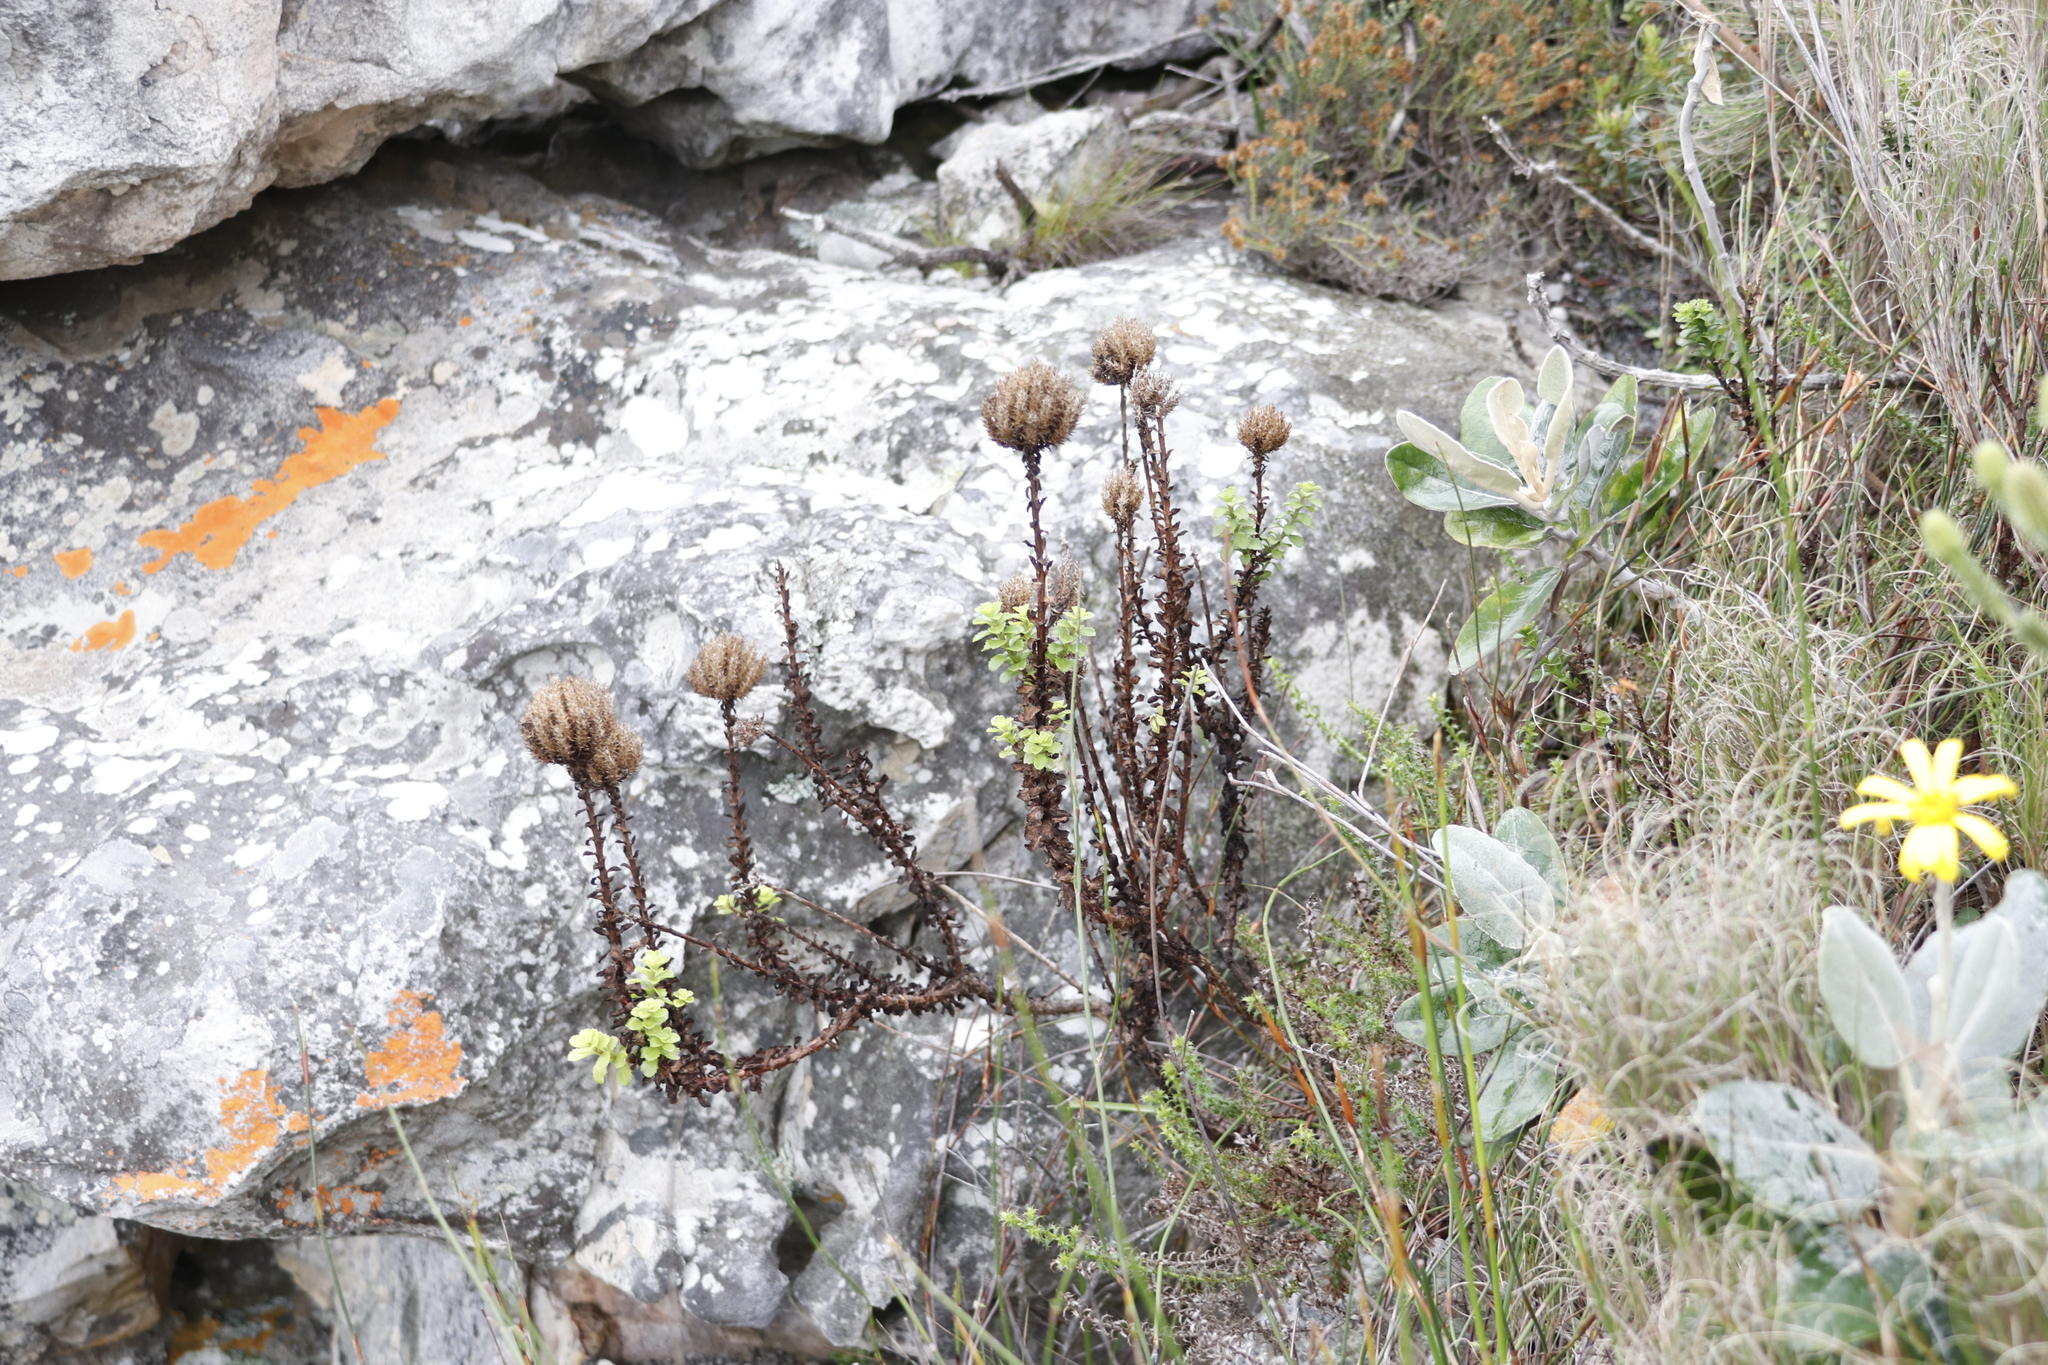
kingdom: Plantae
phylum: Tracheophyta
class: Magnoliopsida
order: Lamiales
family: Scrophulariaceae
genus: Pseudoselago
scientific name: Pseudoselago serrata
